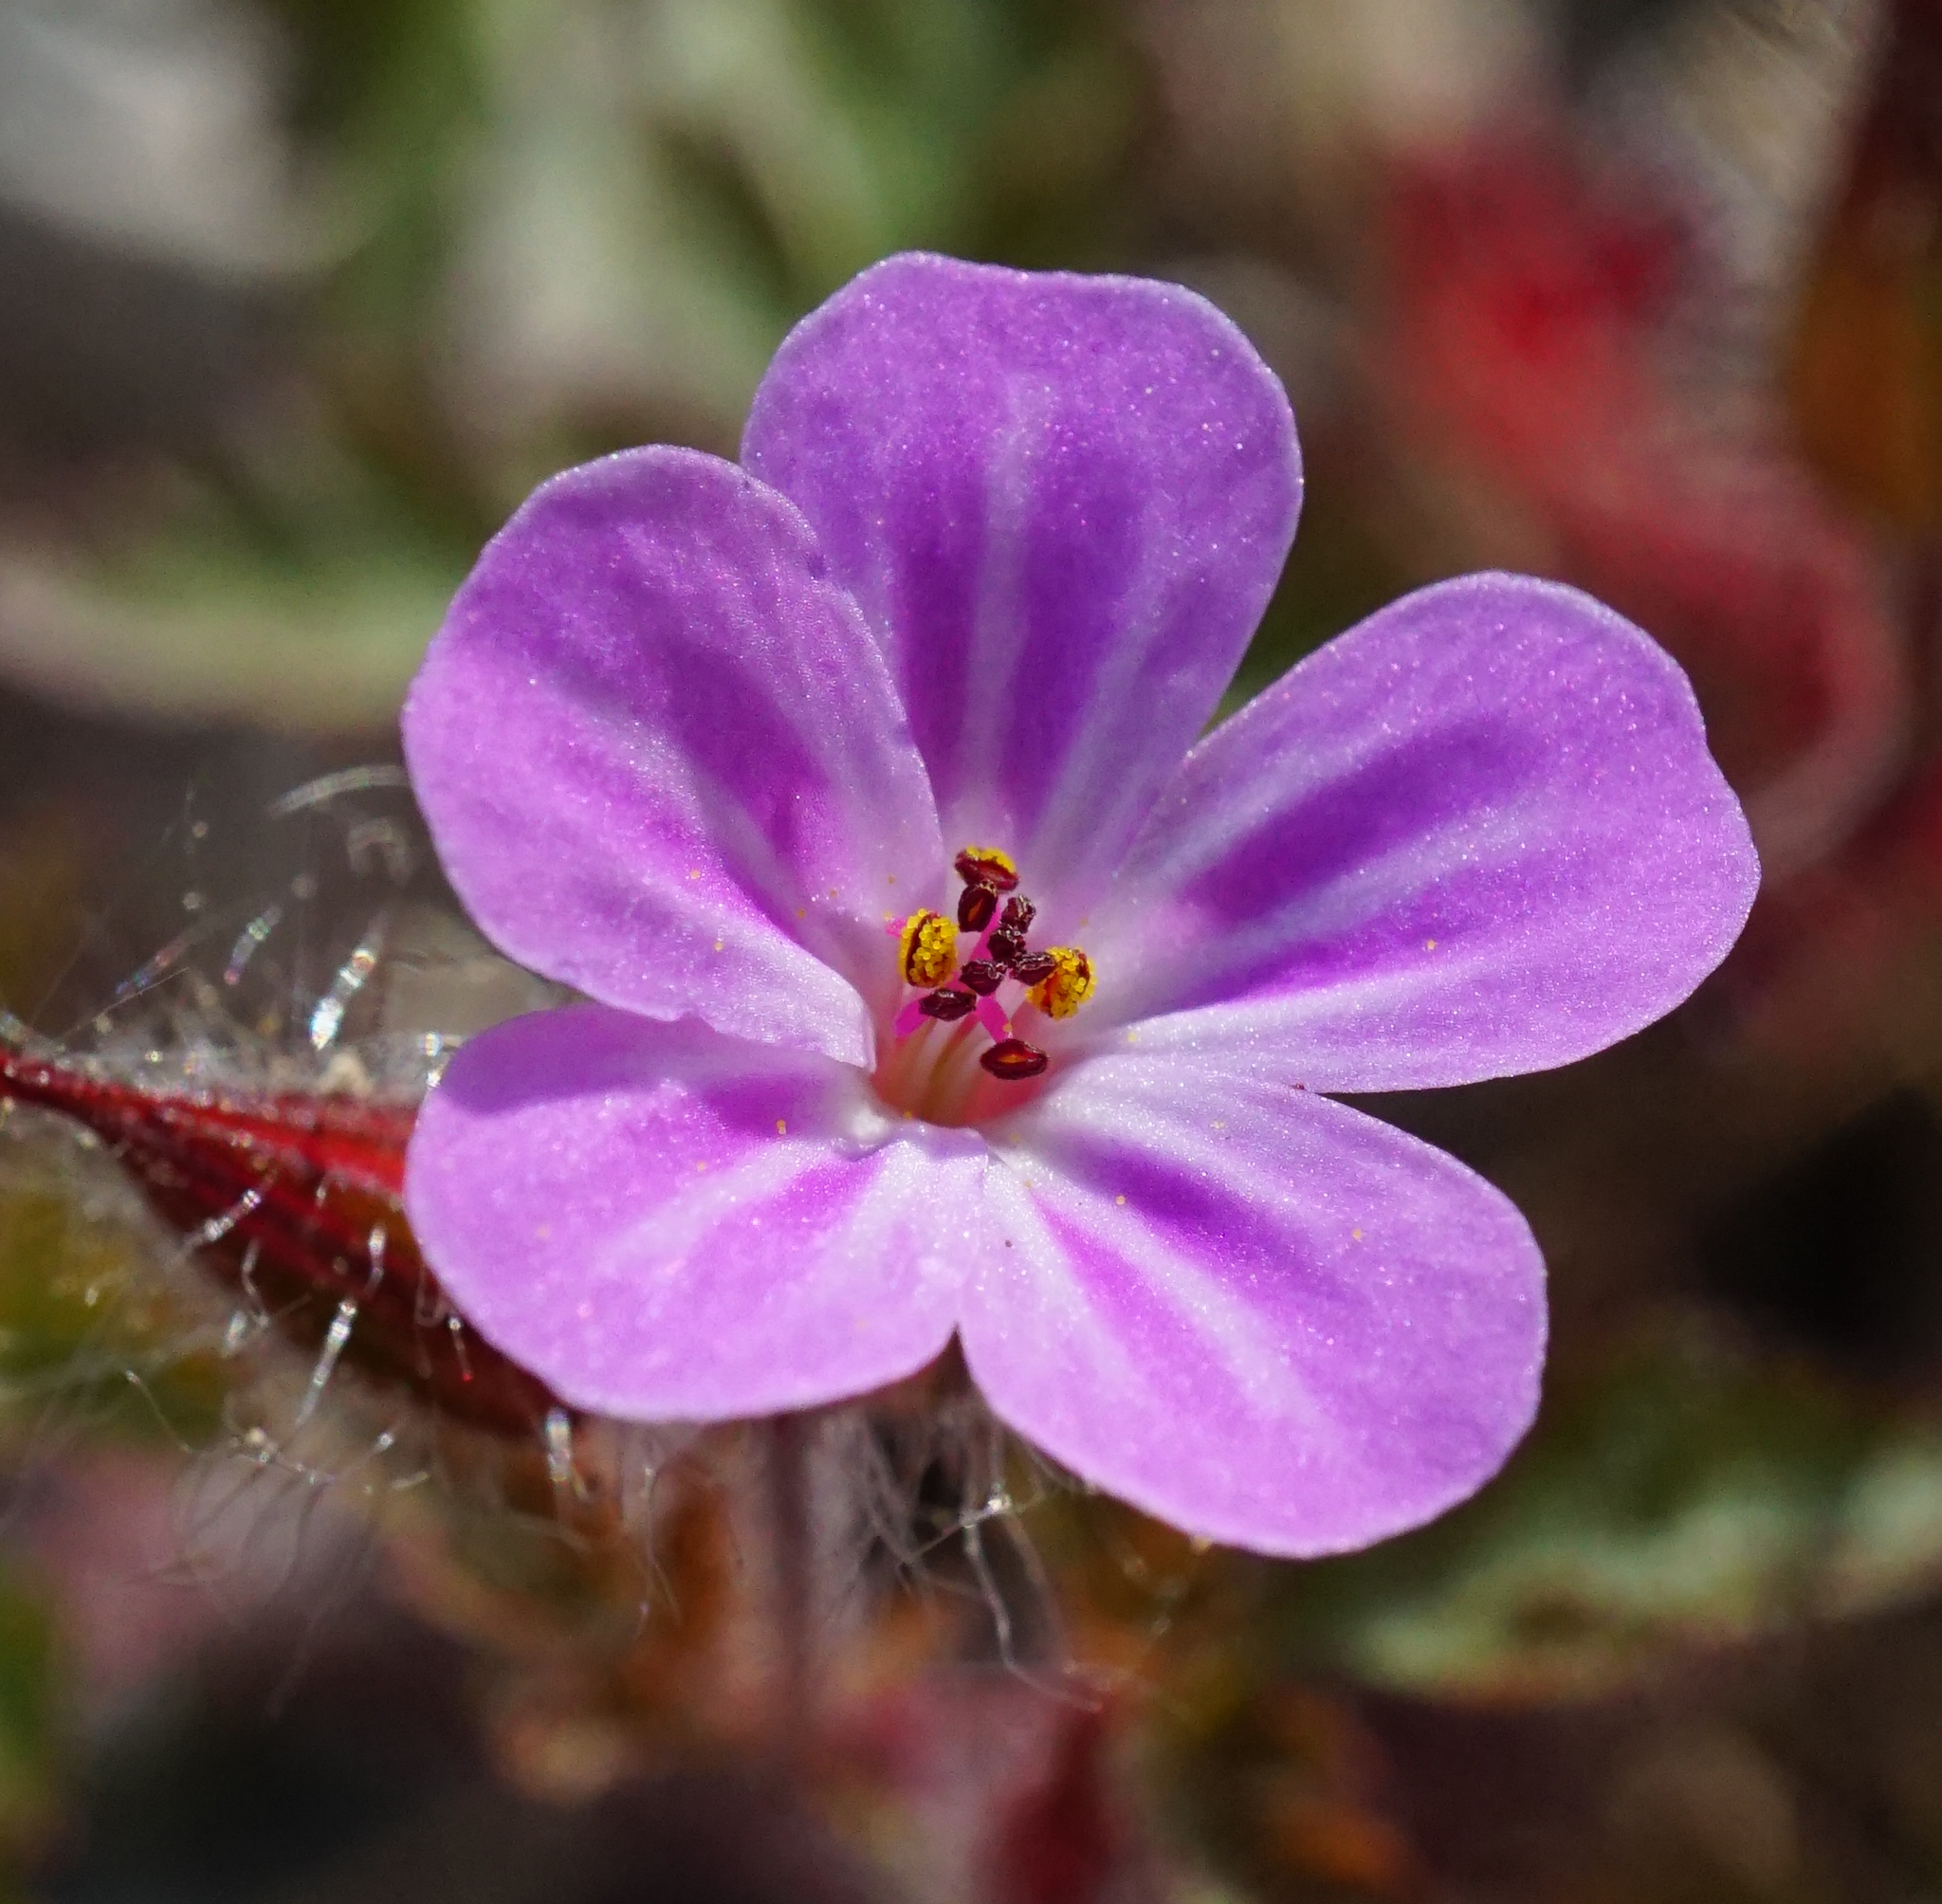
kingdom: Plantae
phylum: Tracheophyta
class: Magnoliopsida
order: Geraniales
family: Geraniaceae
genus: Geranium
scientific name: Geranium robertianum
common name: Herb-robert
